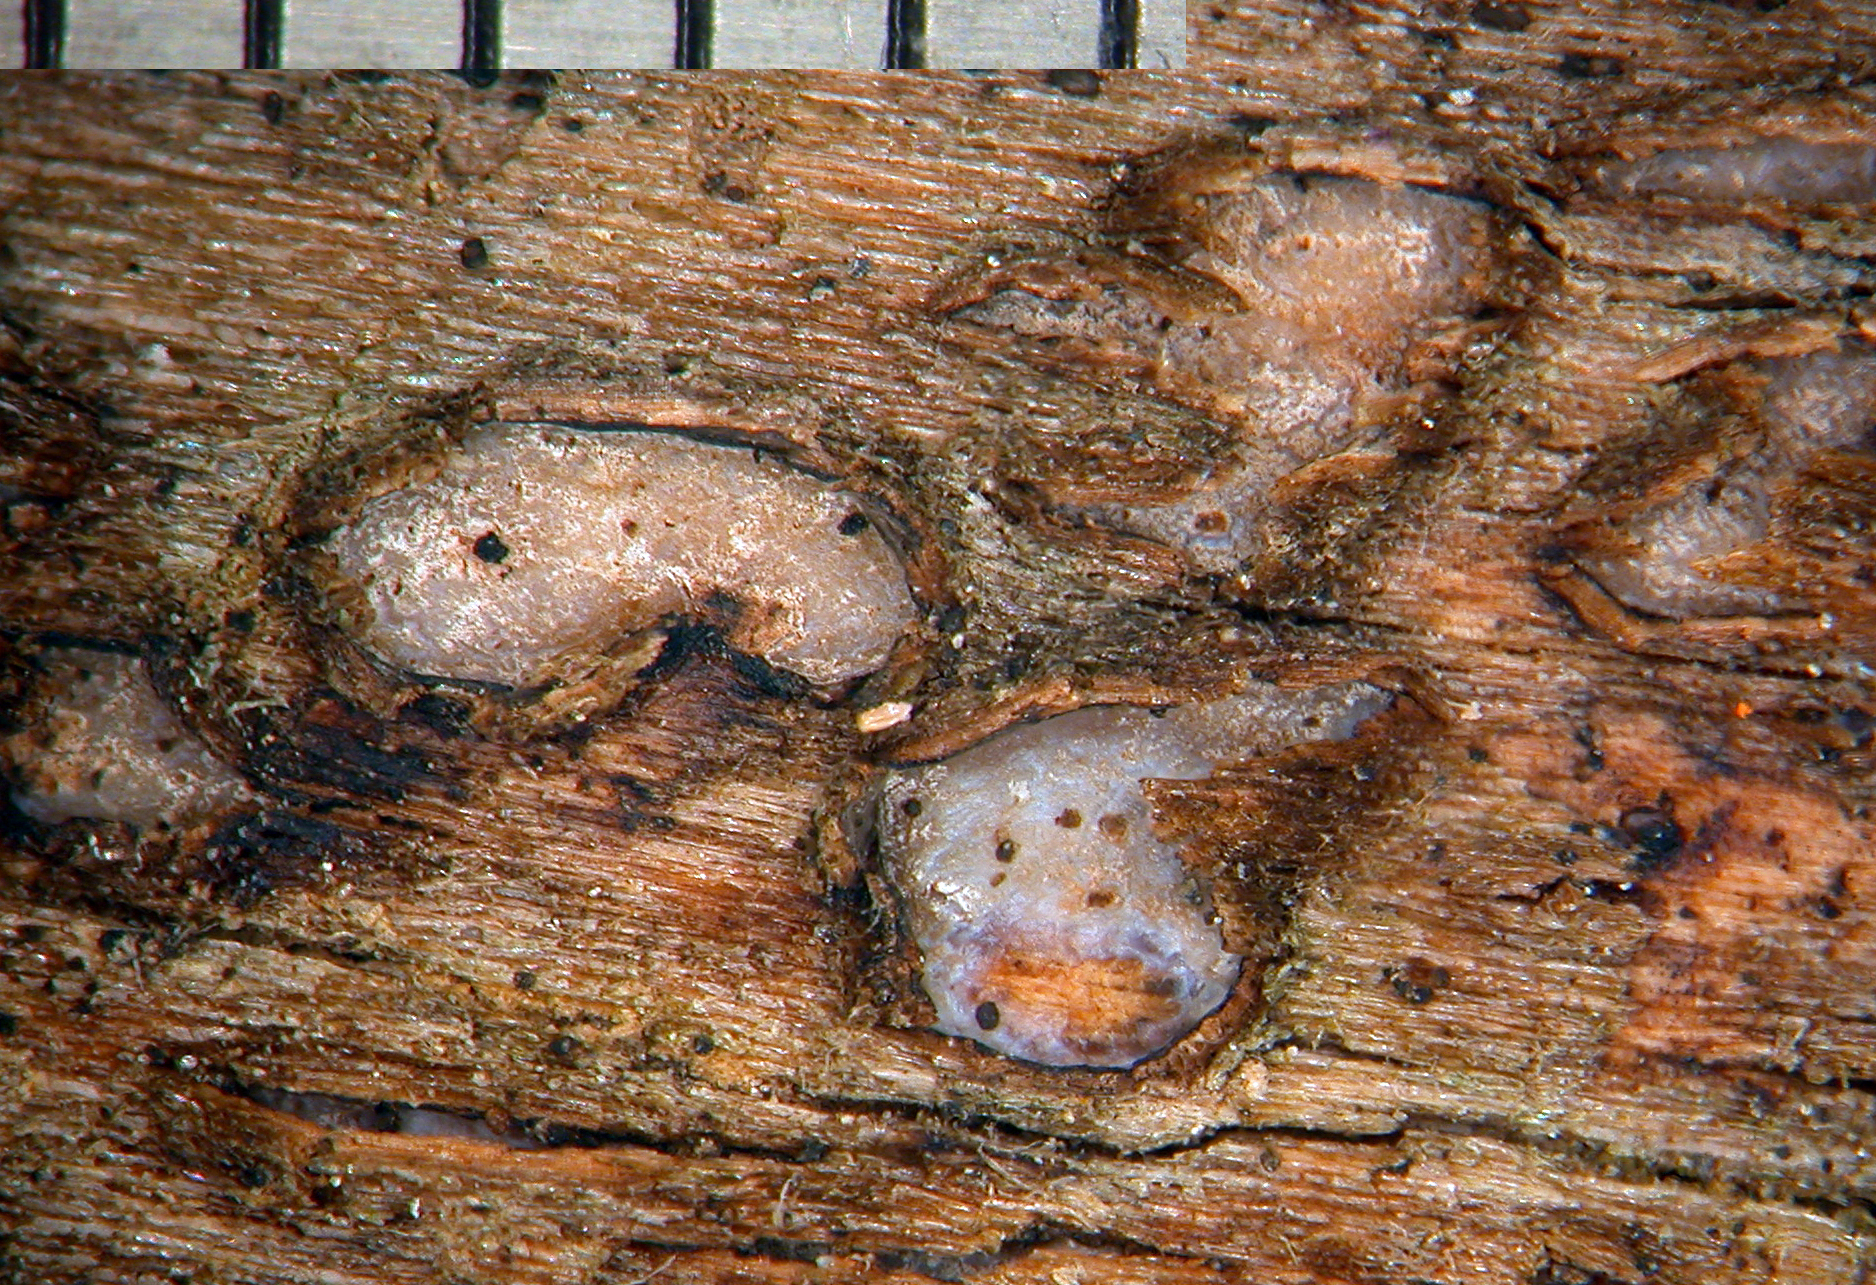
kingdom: Fungi
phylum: Ascomycota
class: Leotiomycetes
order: Chaetomellales
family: Marthamycetaceae
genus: Propolis
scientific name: Propolis farinosa
